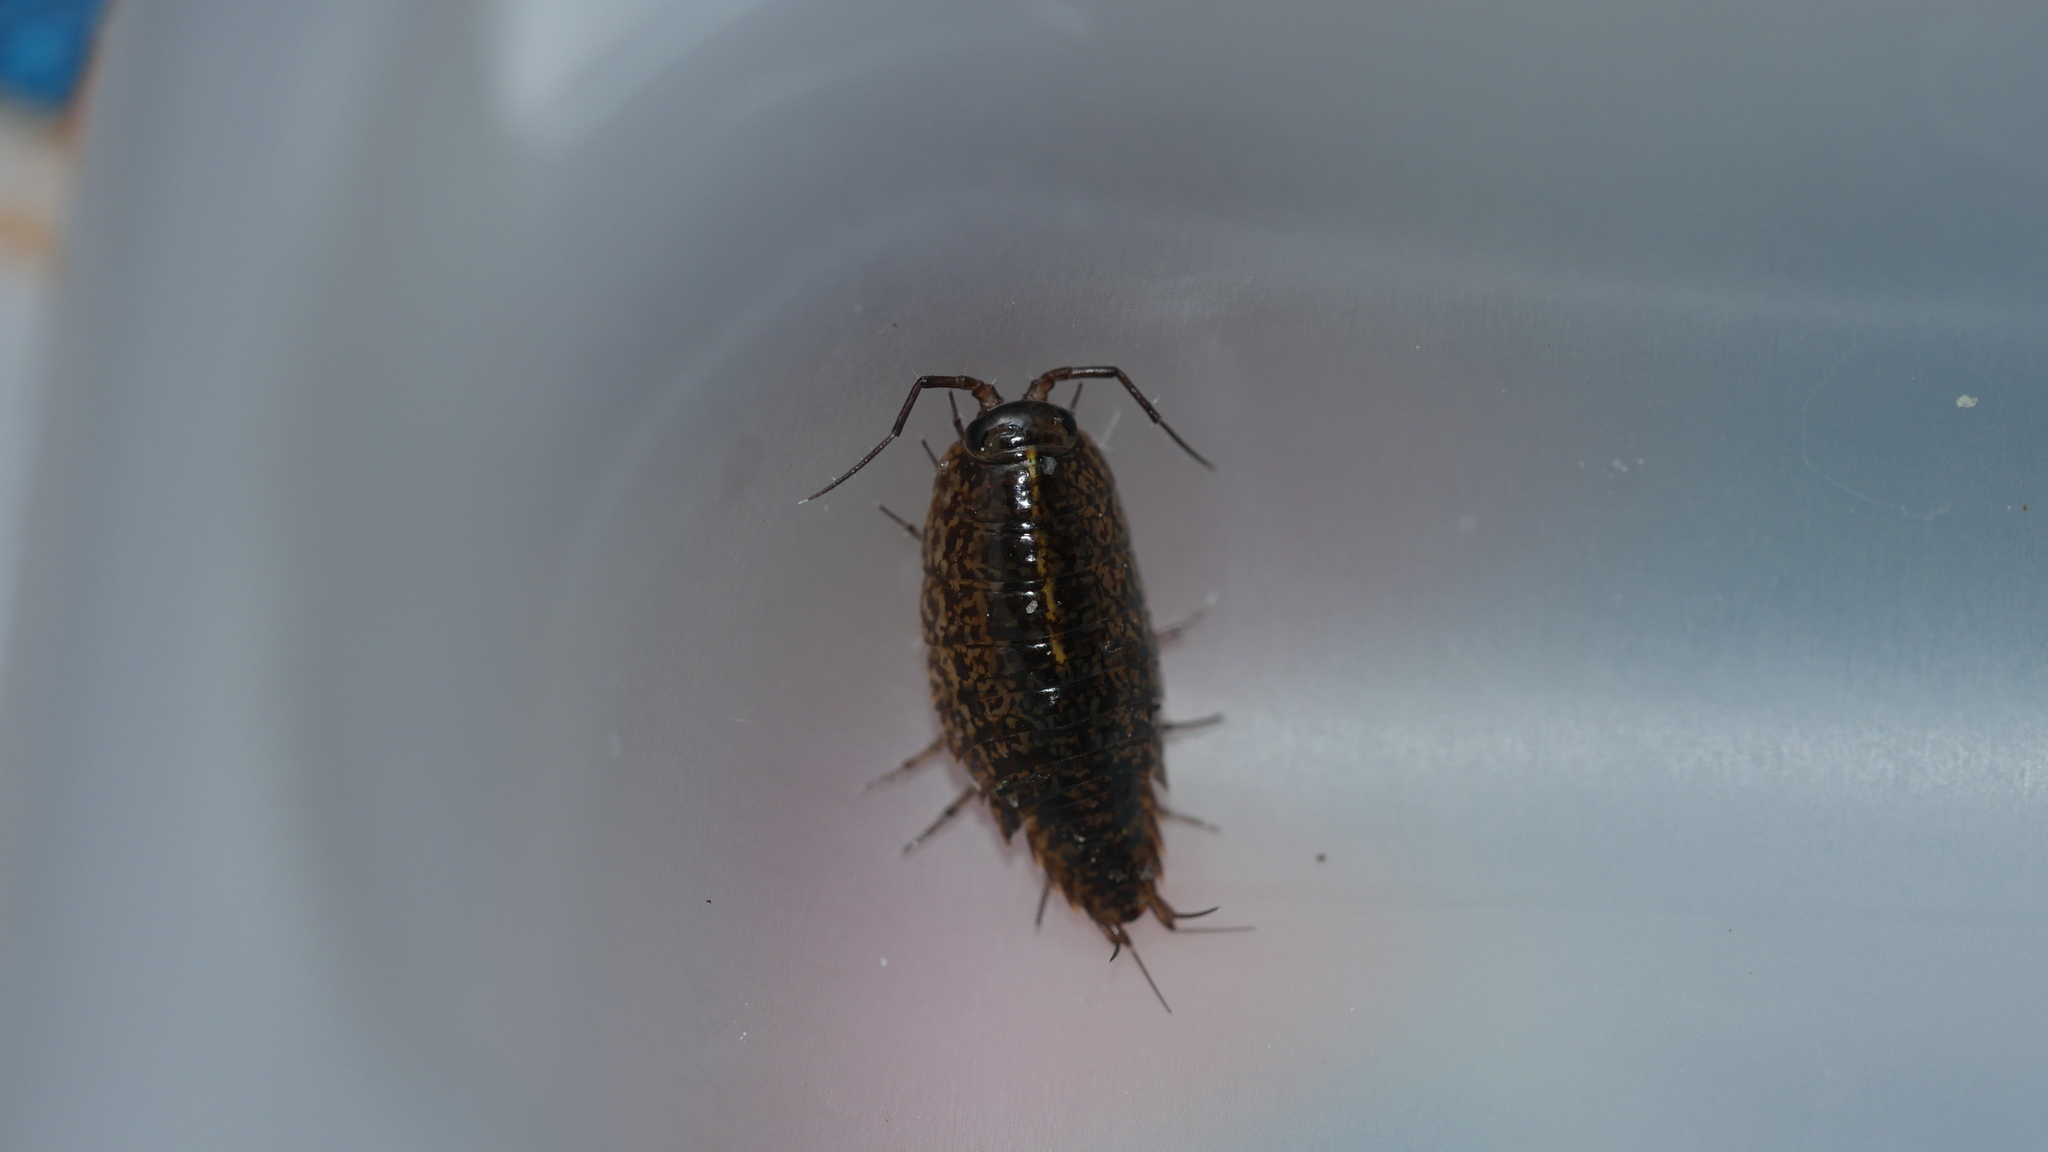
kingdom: Animalia
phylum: Arthropoda
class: Malacostraca
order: Isopoda
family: Ligiidae
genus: Ligidium
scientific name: Ligidium elrodii
